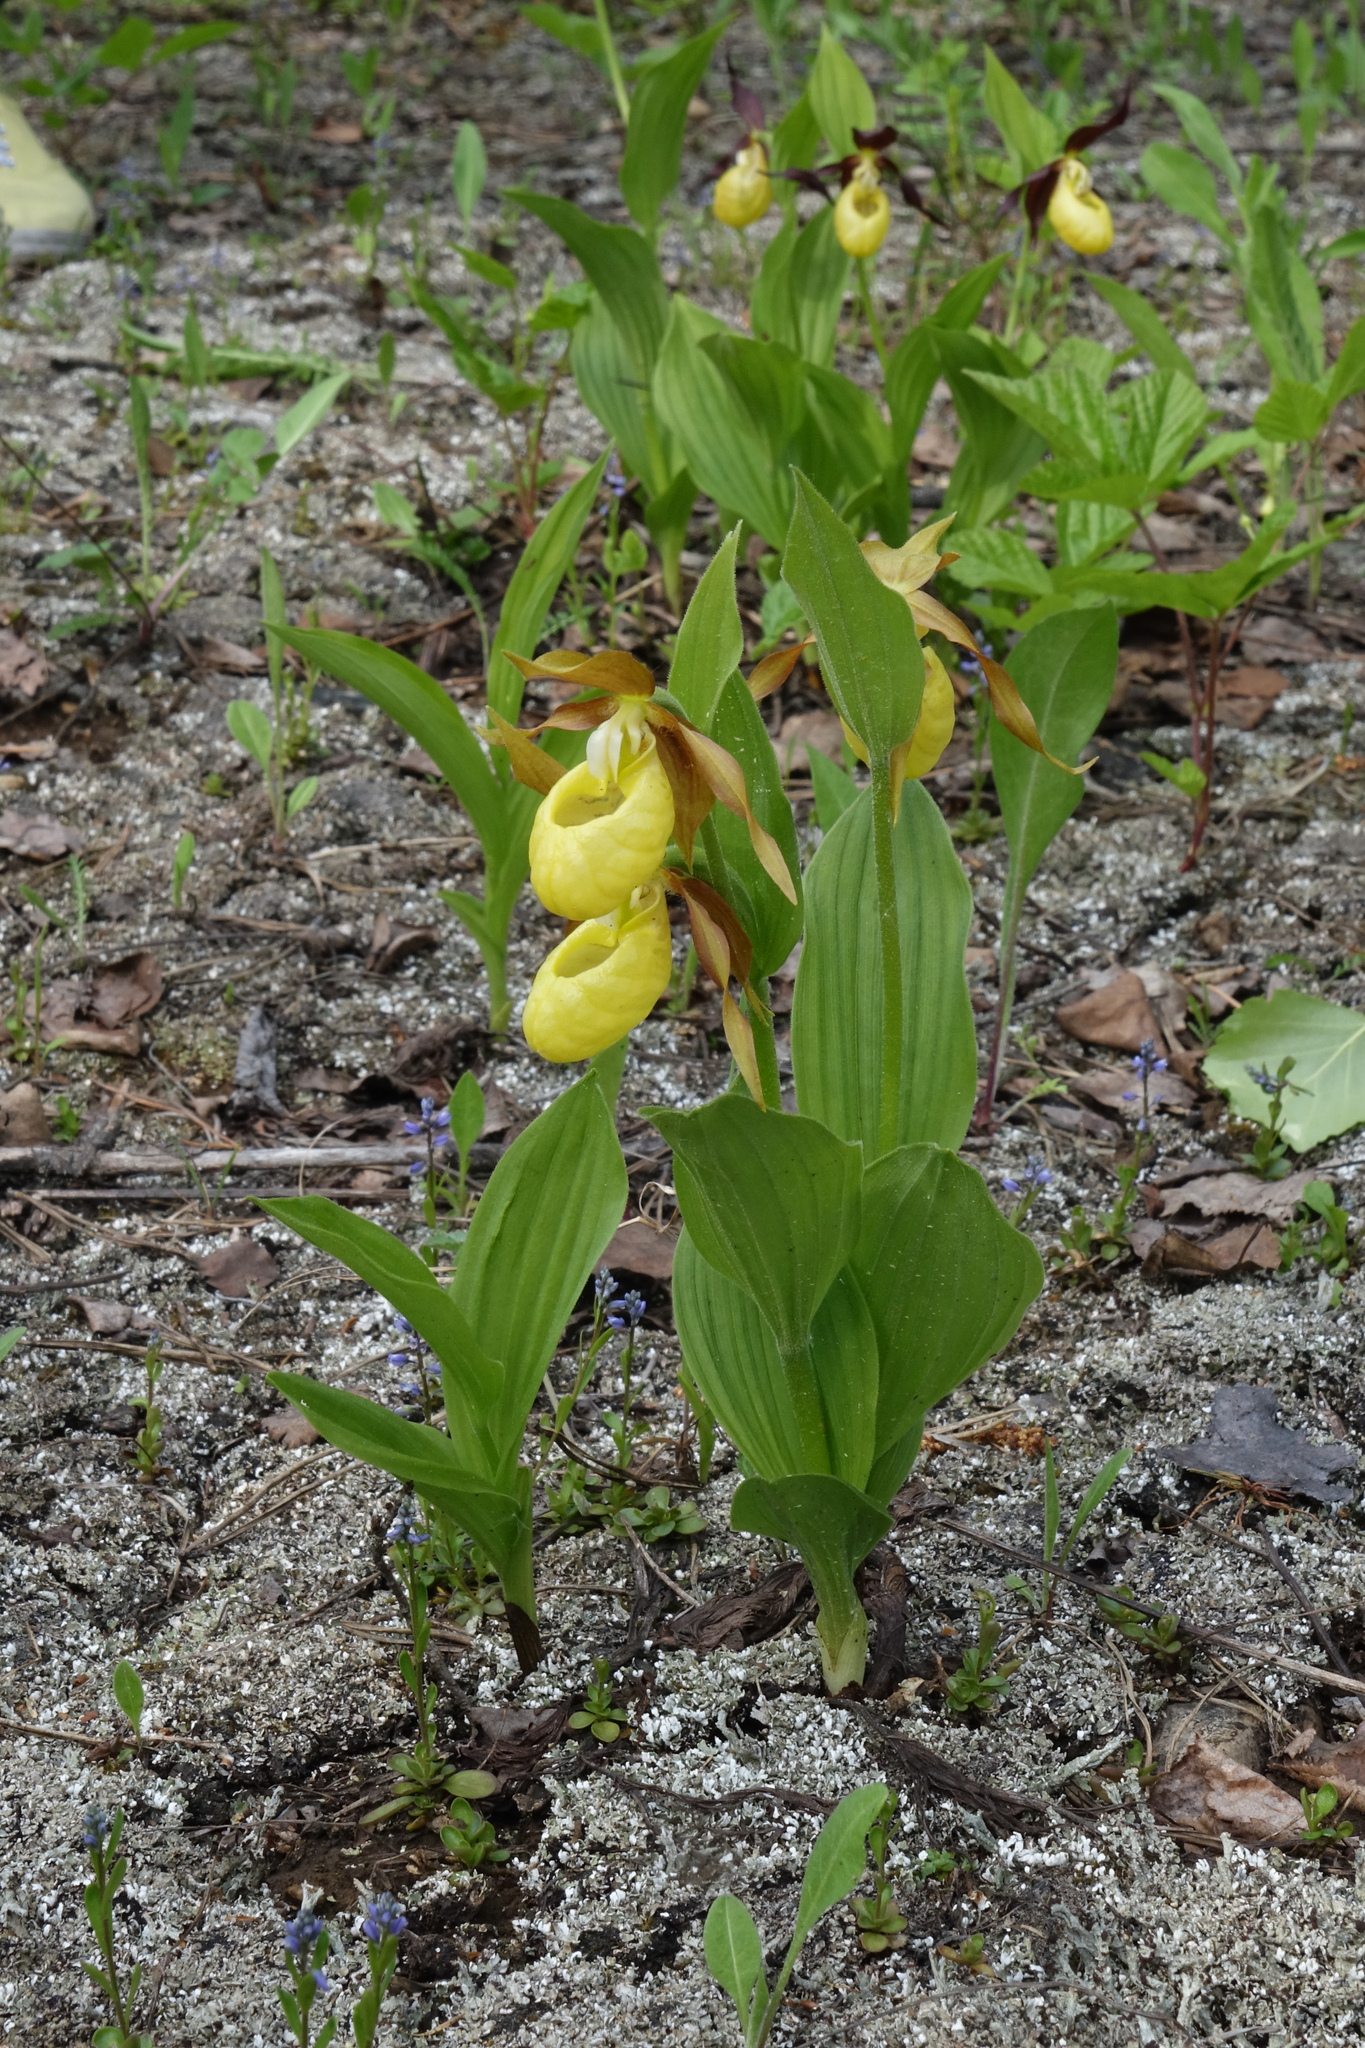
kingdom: Plantae
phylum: Tracheophyta
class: Liliopsida
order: Asparagales
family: Orchidaceae
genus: Cypripedium
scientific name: Cypripedium calceolus
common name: Lady's-slipper
